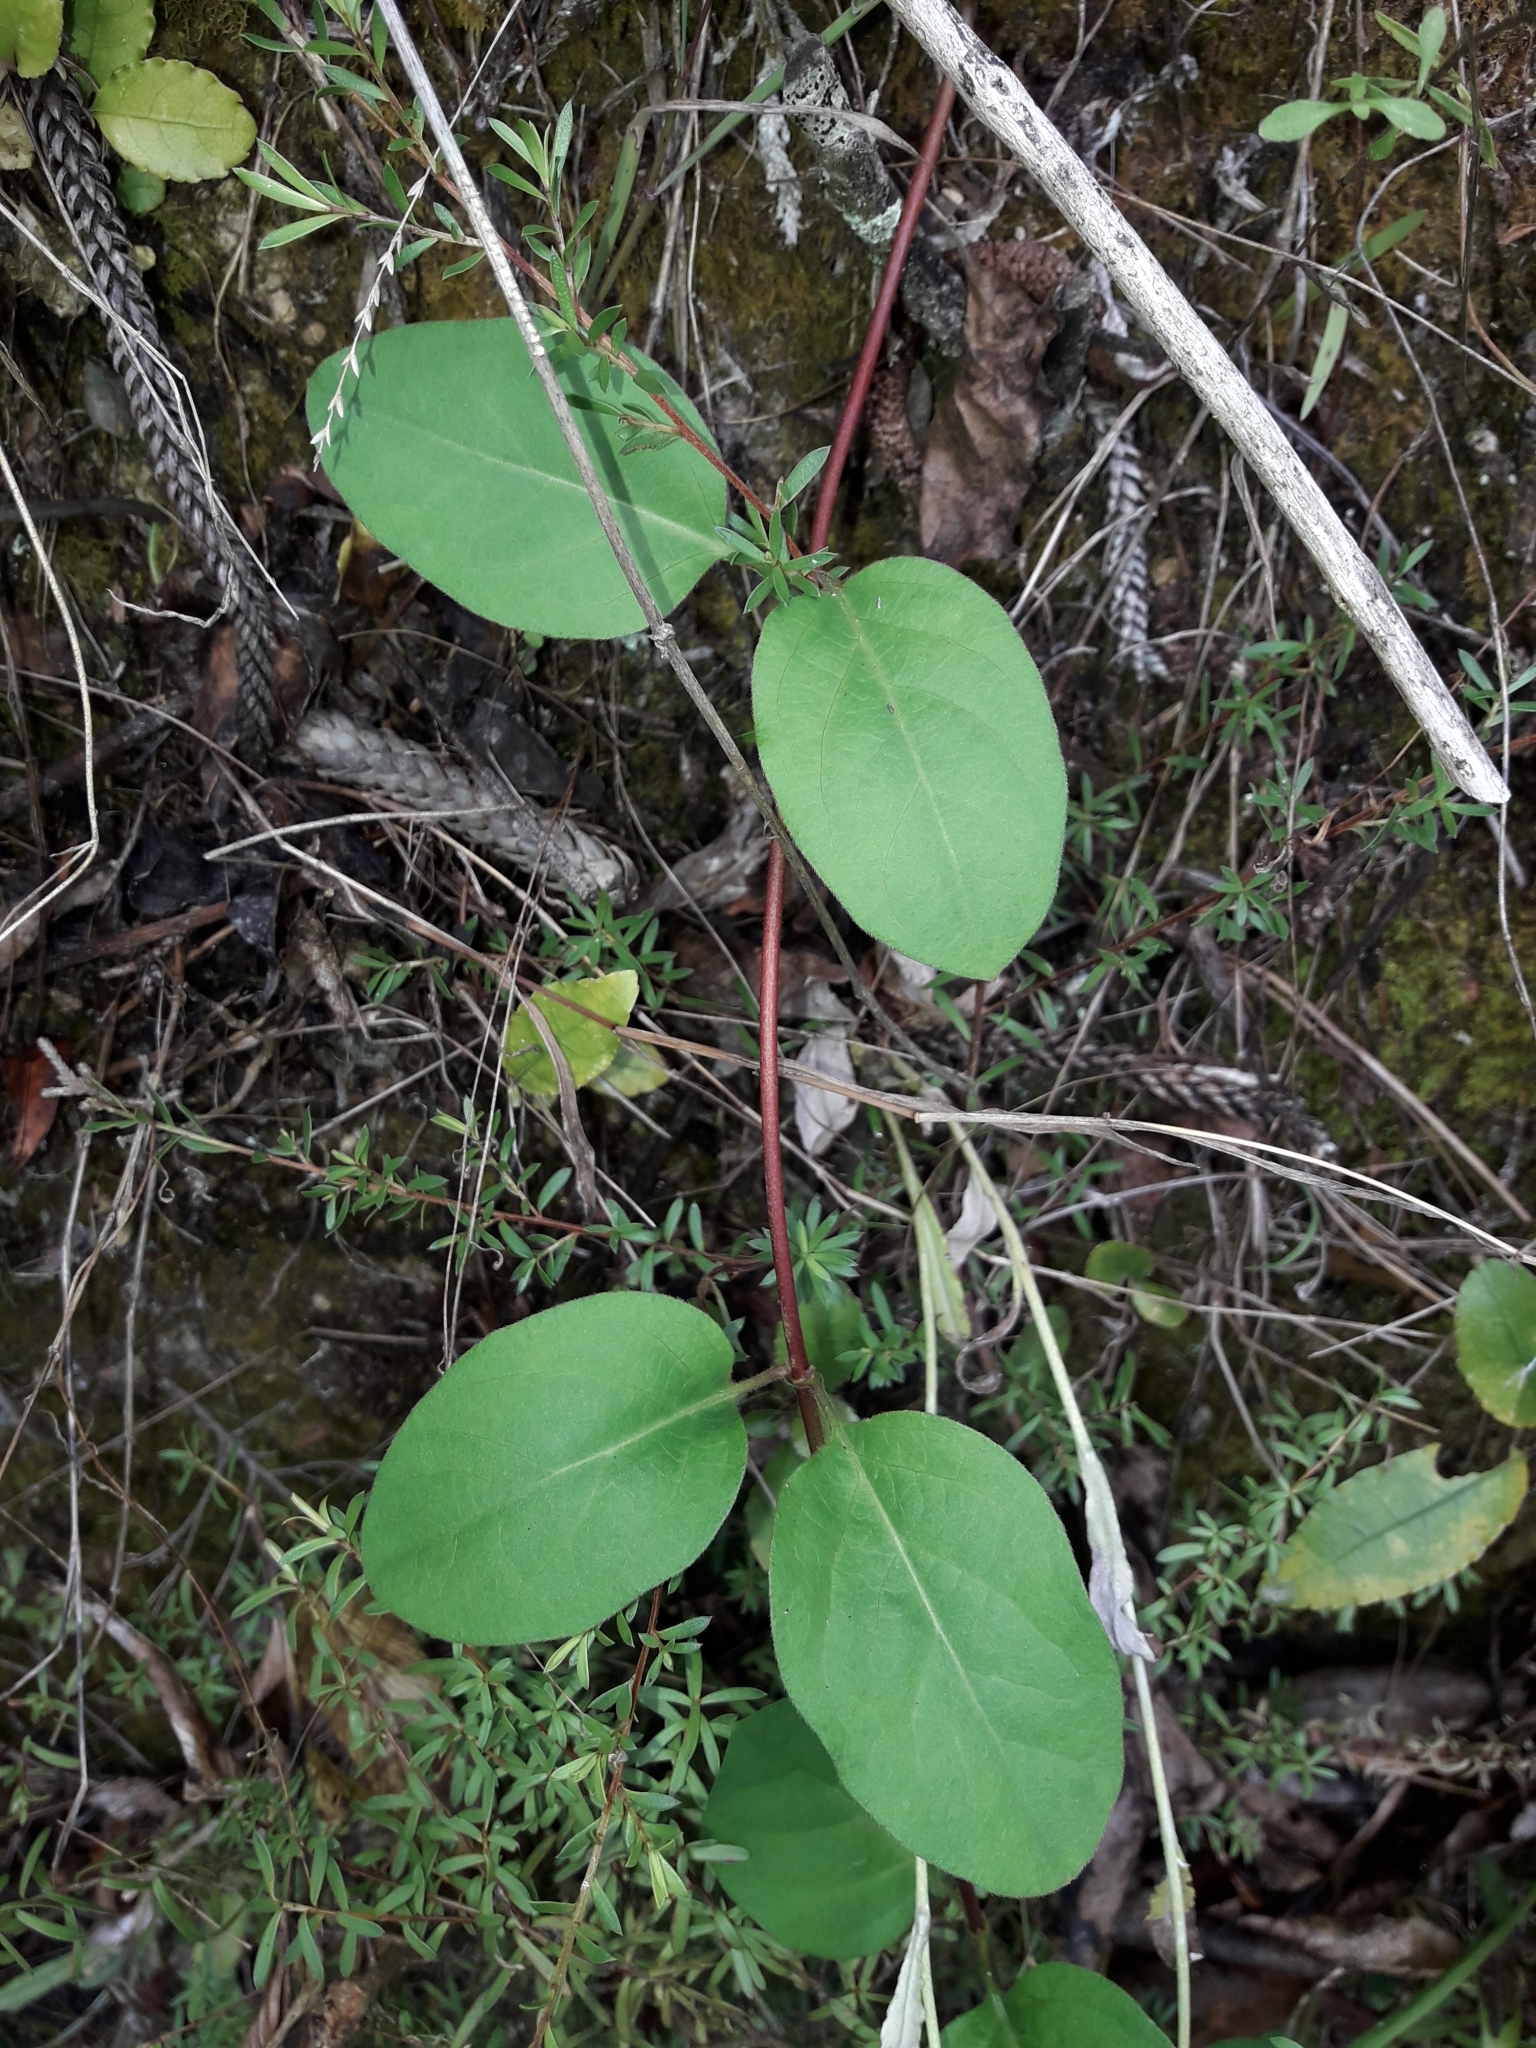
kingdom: Plantae
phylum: Tracheophyta
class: Magnoliopsida
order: Dipsacales
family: Caprifoliaceae
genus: Lonicera
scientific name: Lonicera japonica
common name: Japanese honeysuckle
